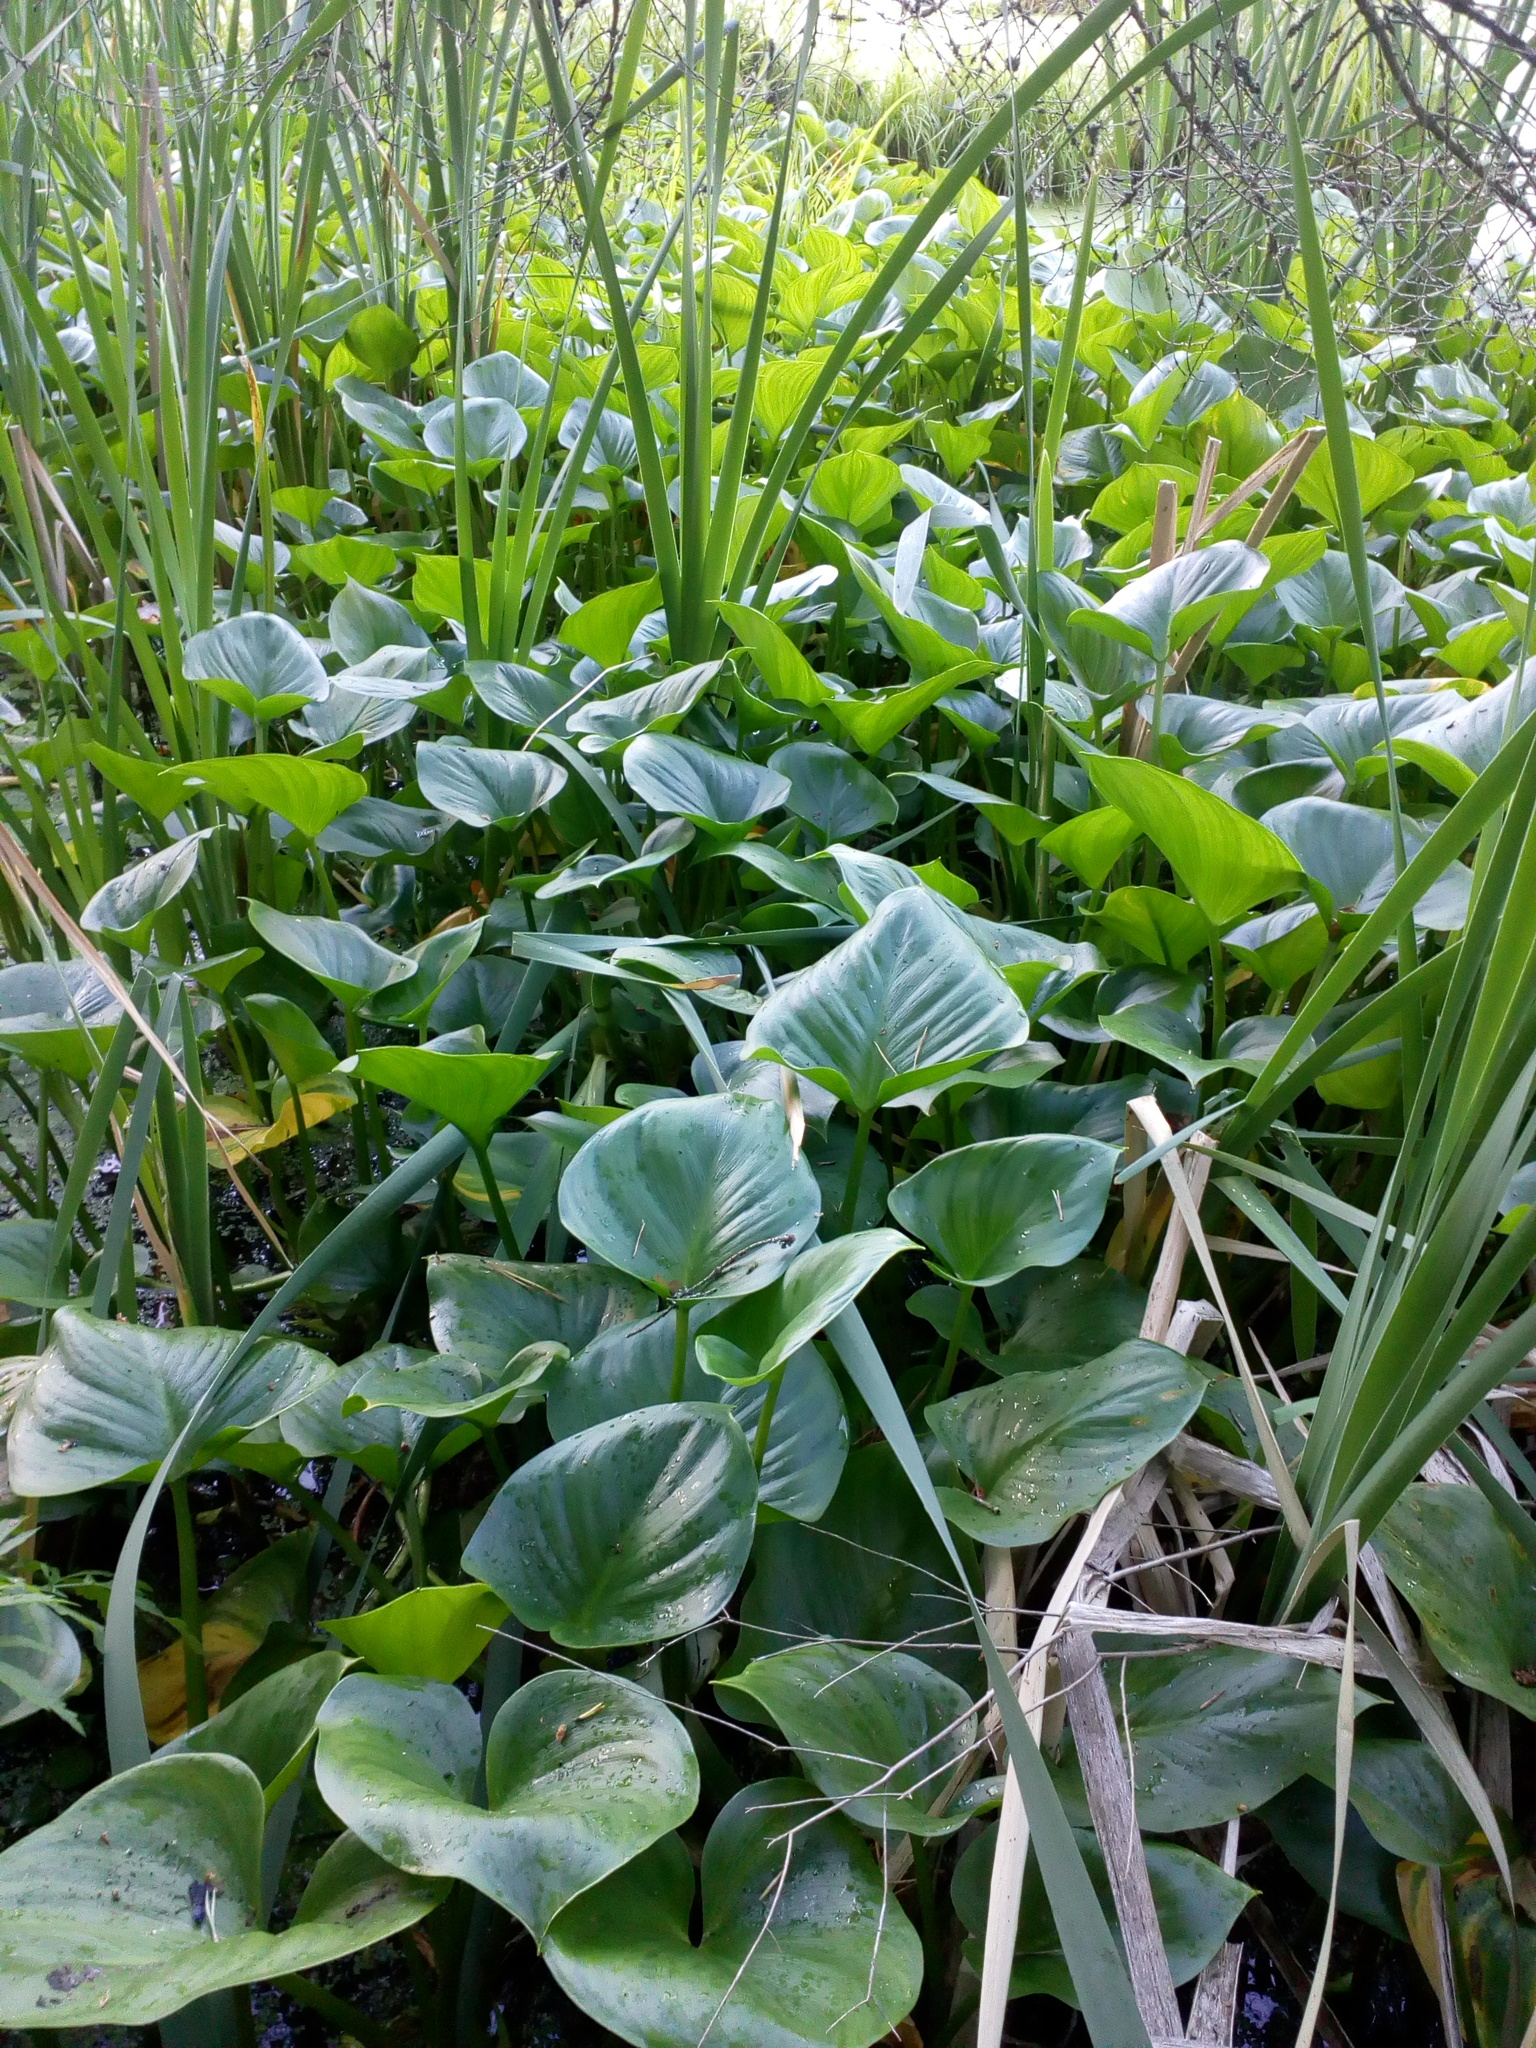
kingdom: Plantae
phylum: Tracheophyta
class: Liliopsida
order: Alismatales
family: Araceae
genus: Calla
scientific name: Calla palustris
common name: Bog arum
